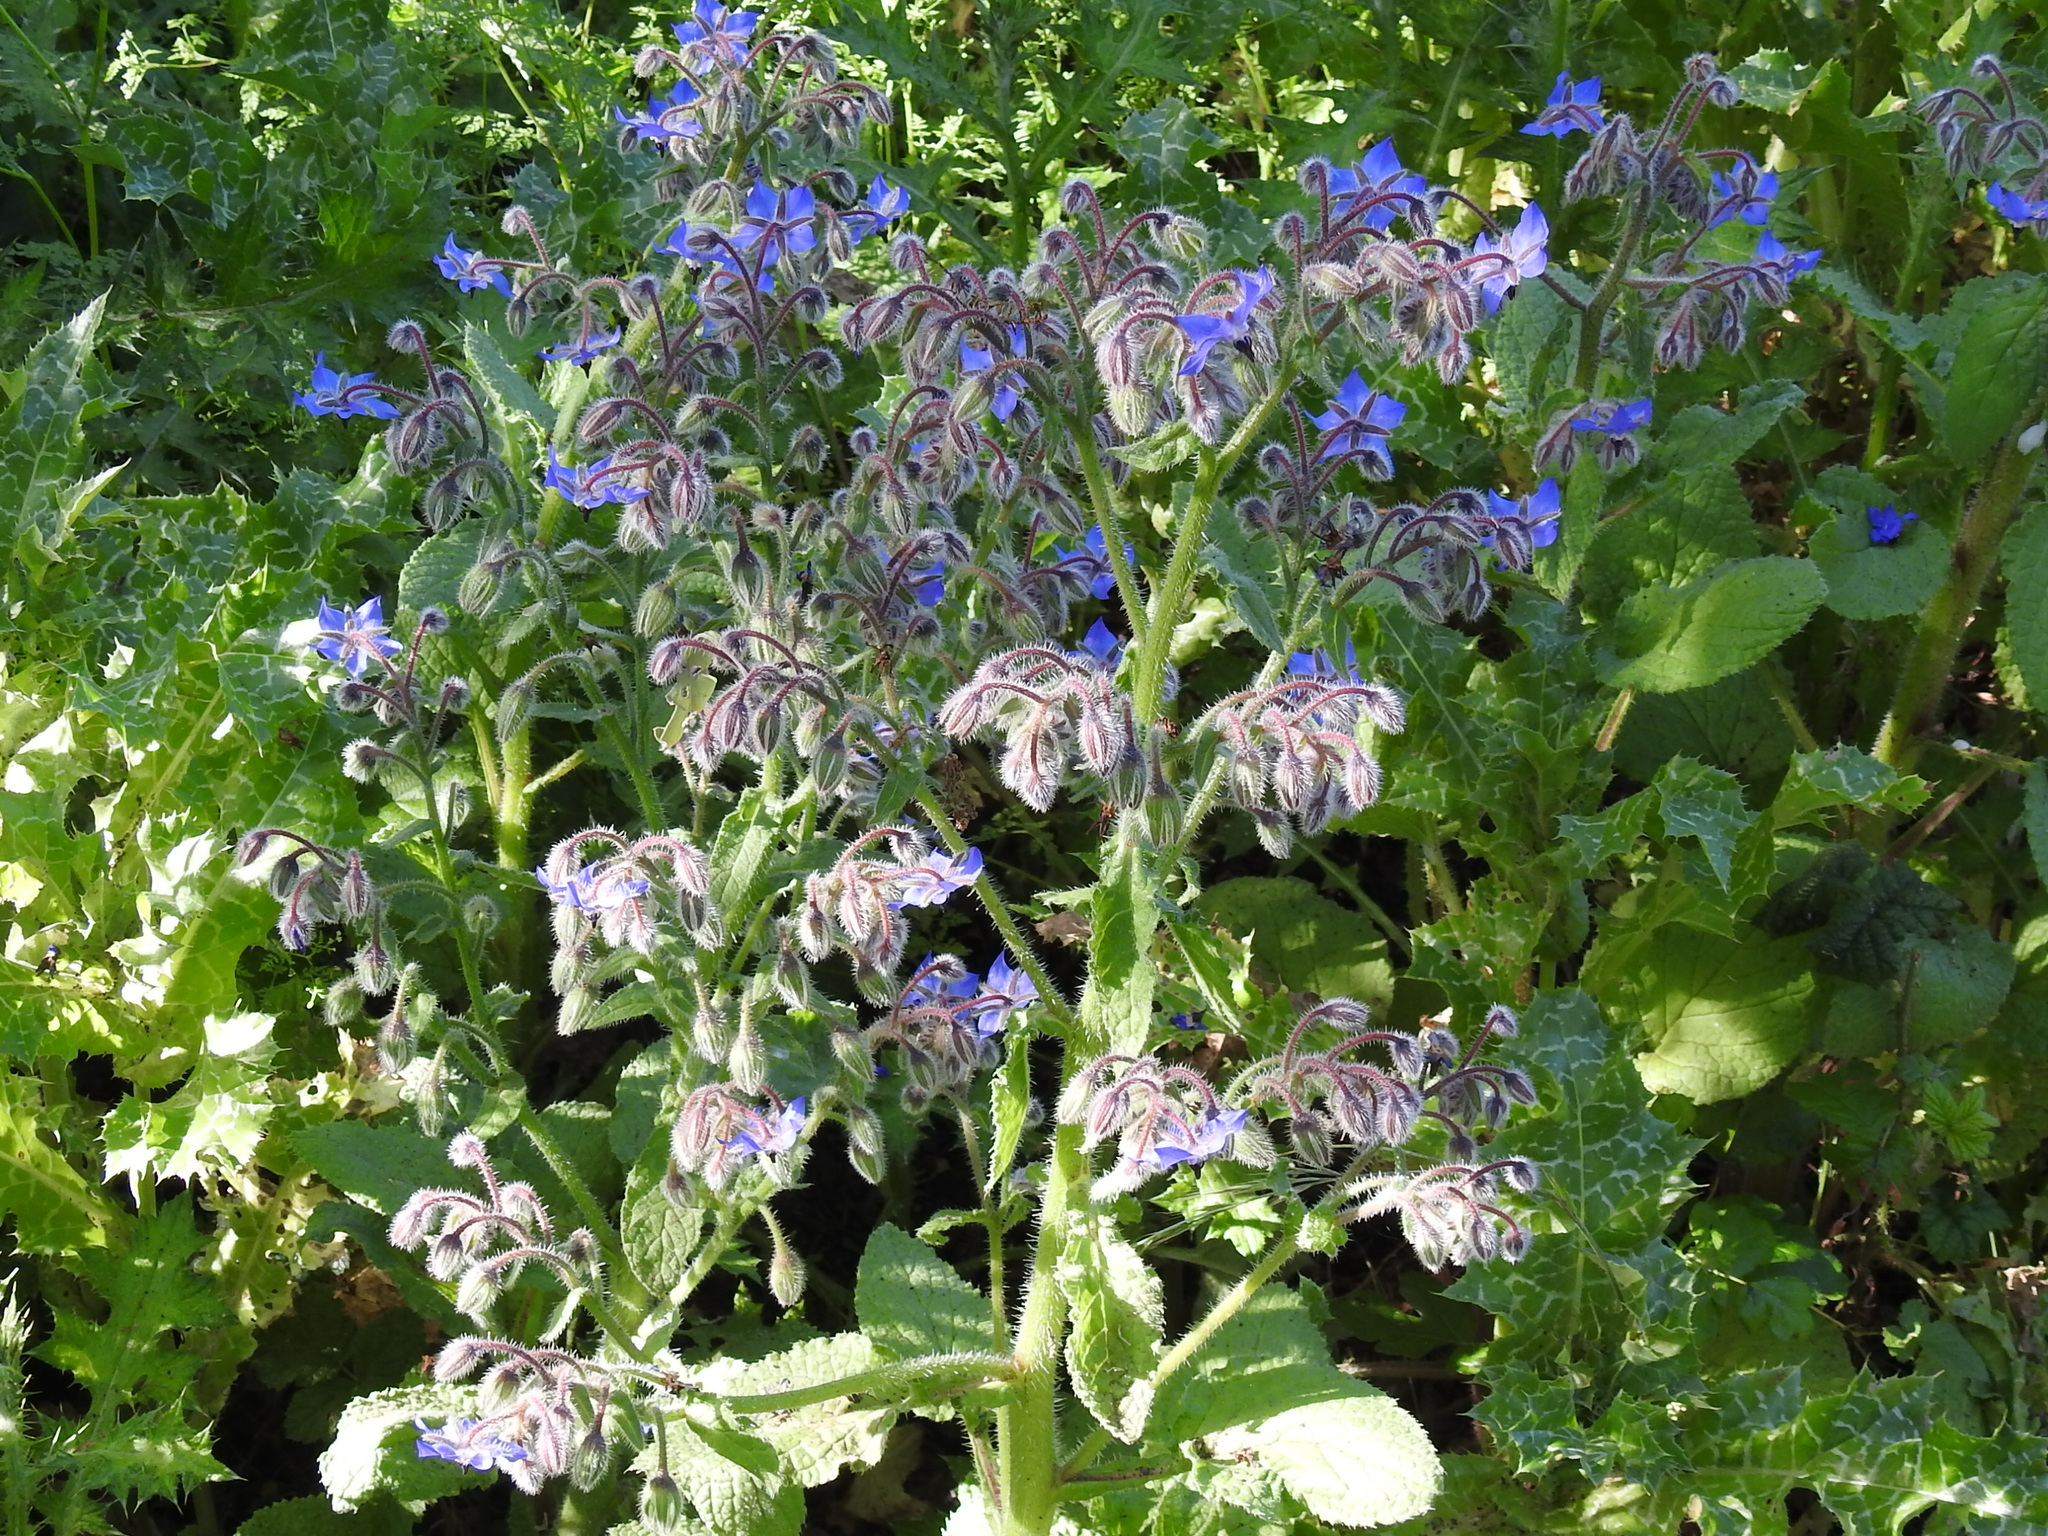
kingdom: Plantae
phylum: Tracheophyta
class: Magnoliopsida
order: Boraginales
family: Boraginaceae
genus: Borago
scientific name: Borago officinalis
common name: Borage
